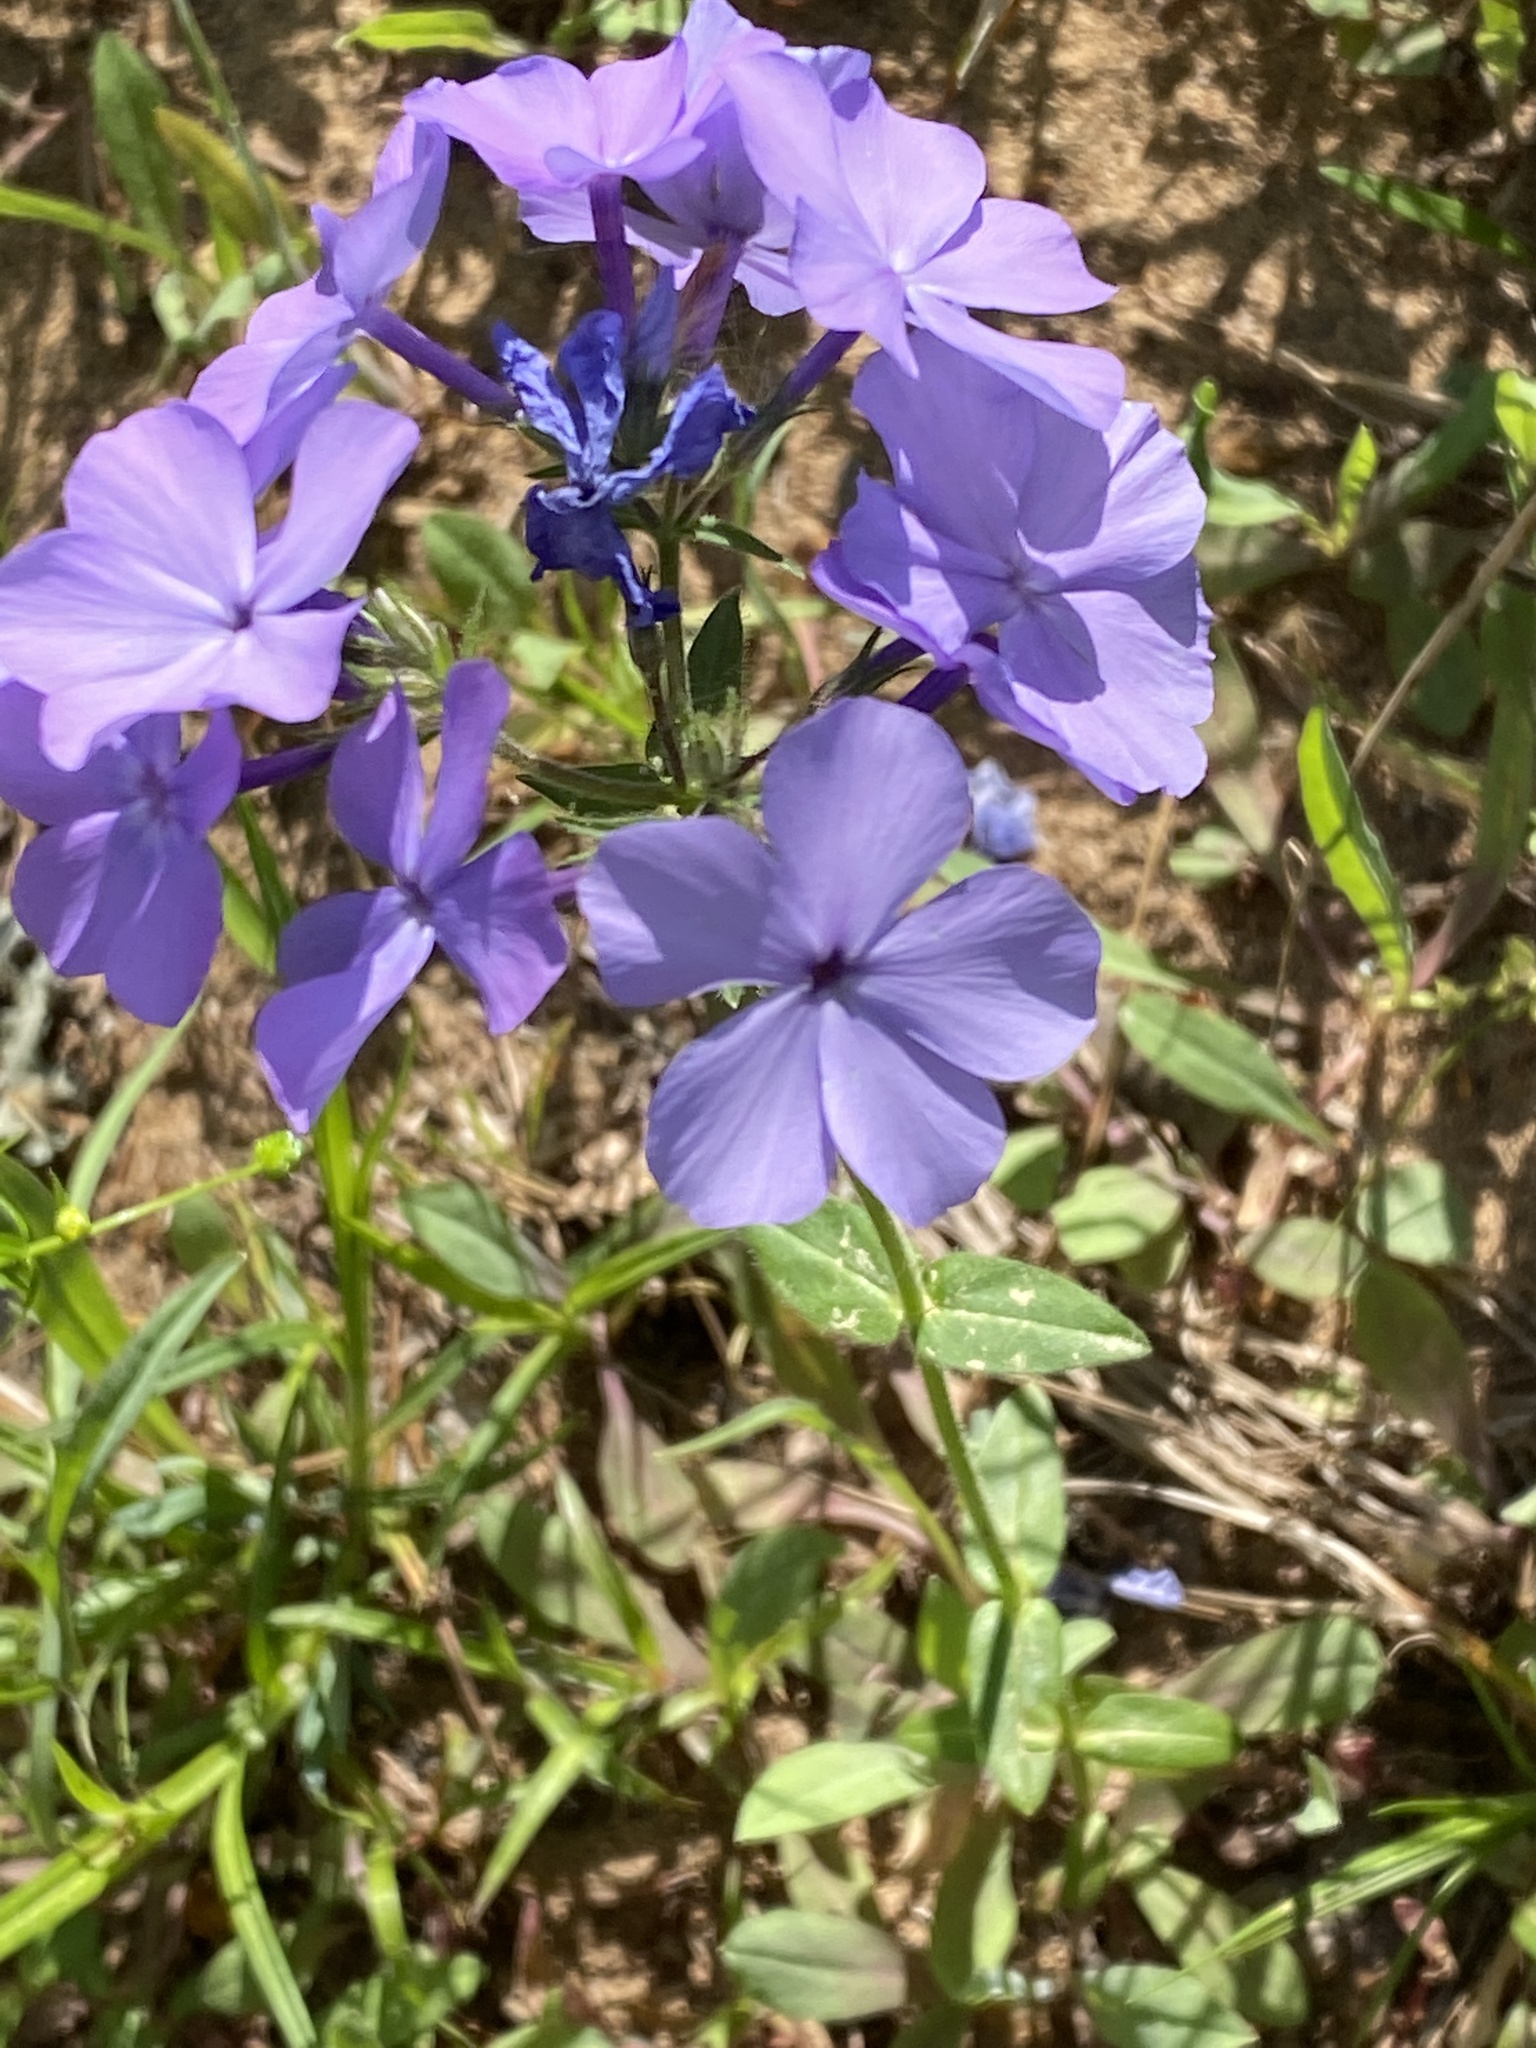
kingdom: Plantae
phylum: Tracheophyta
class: Magnoliopsida
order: Ericales
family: Polemoniaceae
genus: Phlox
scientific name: Phlox divaricata
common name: Blue phlox
